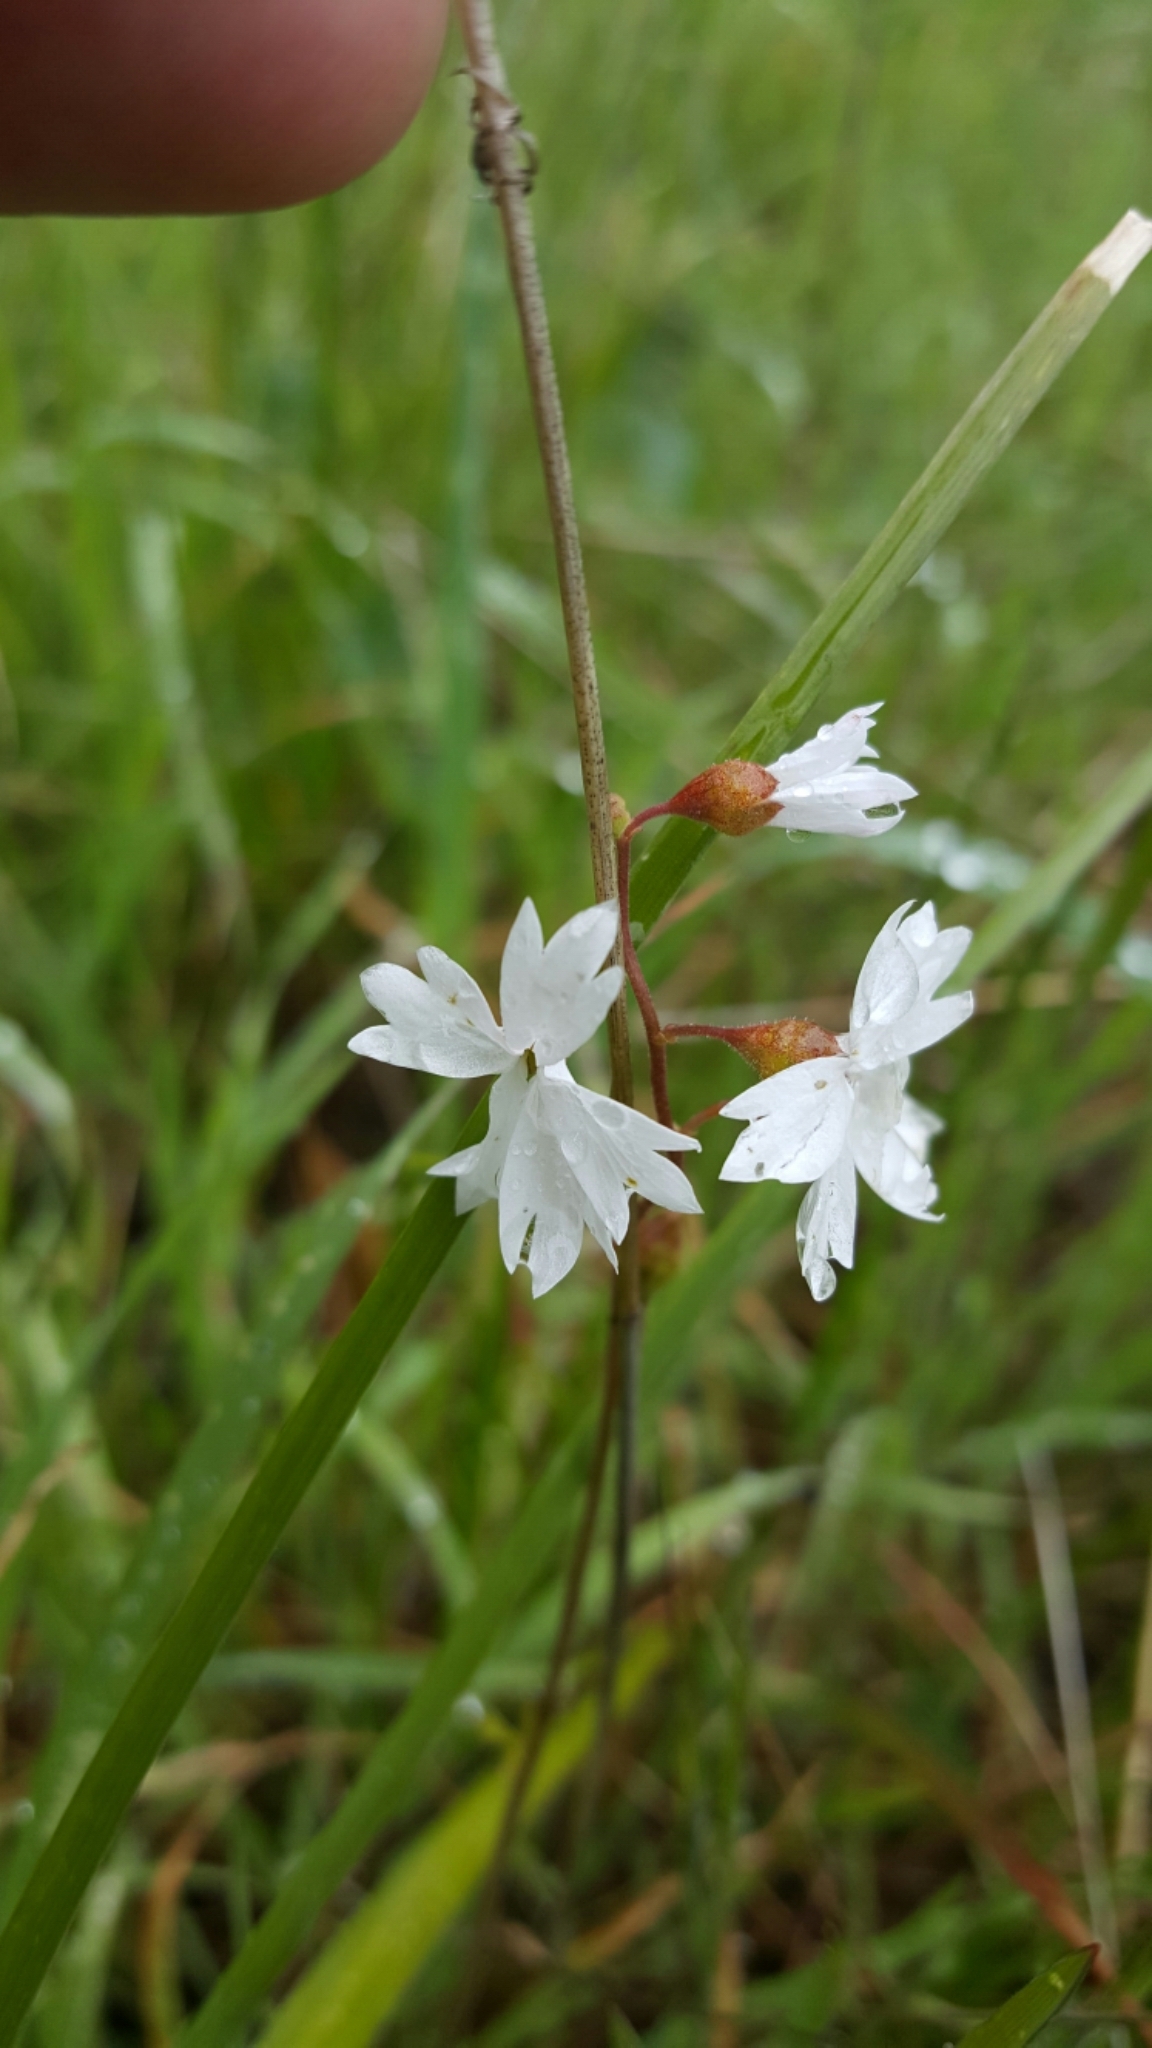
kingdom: Plantae
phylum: Tracheophyta
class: Magnoliopsida
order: Saxifragales
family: Saxifragaceae
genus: Lithophragma
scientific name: Lithophragma affine
